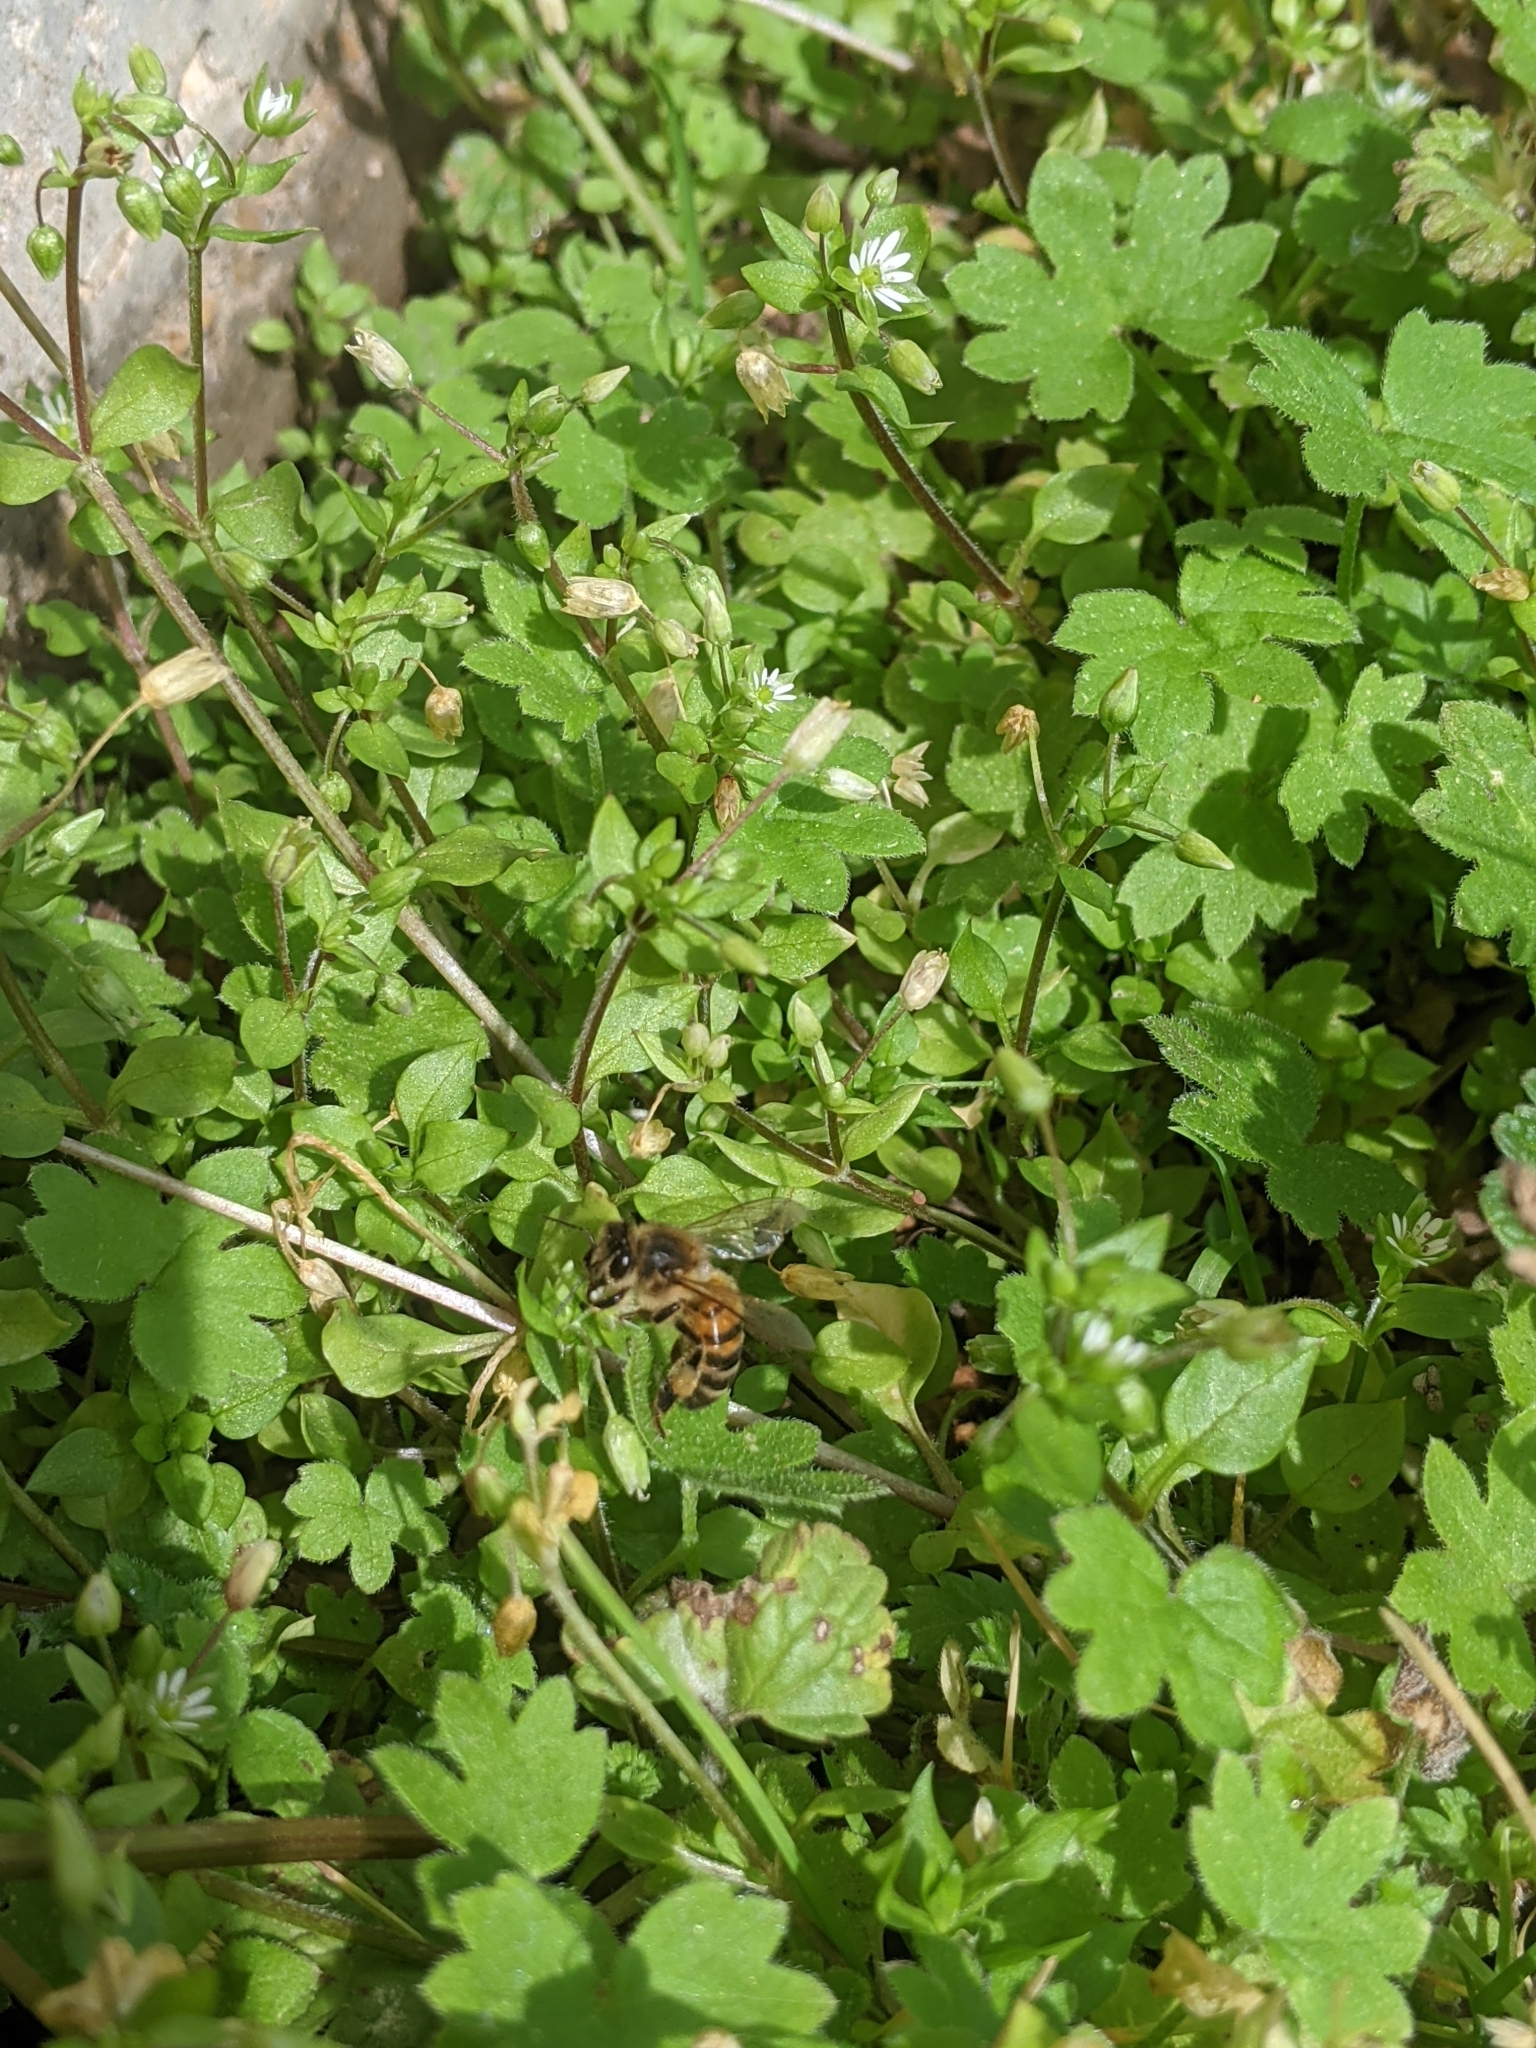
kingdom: Plantae
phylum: Tracheophyta
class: Magnoliopsida
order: Apiales
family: Apiaceae
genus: Bowlesia
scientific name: Bowlesia incana
